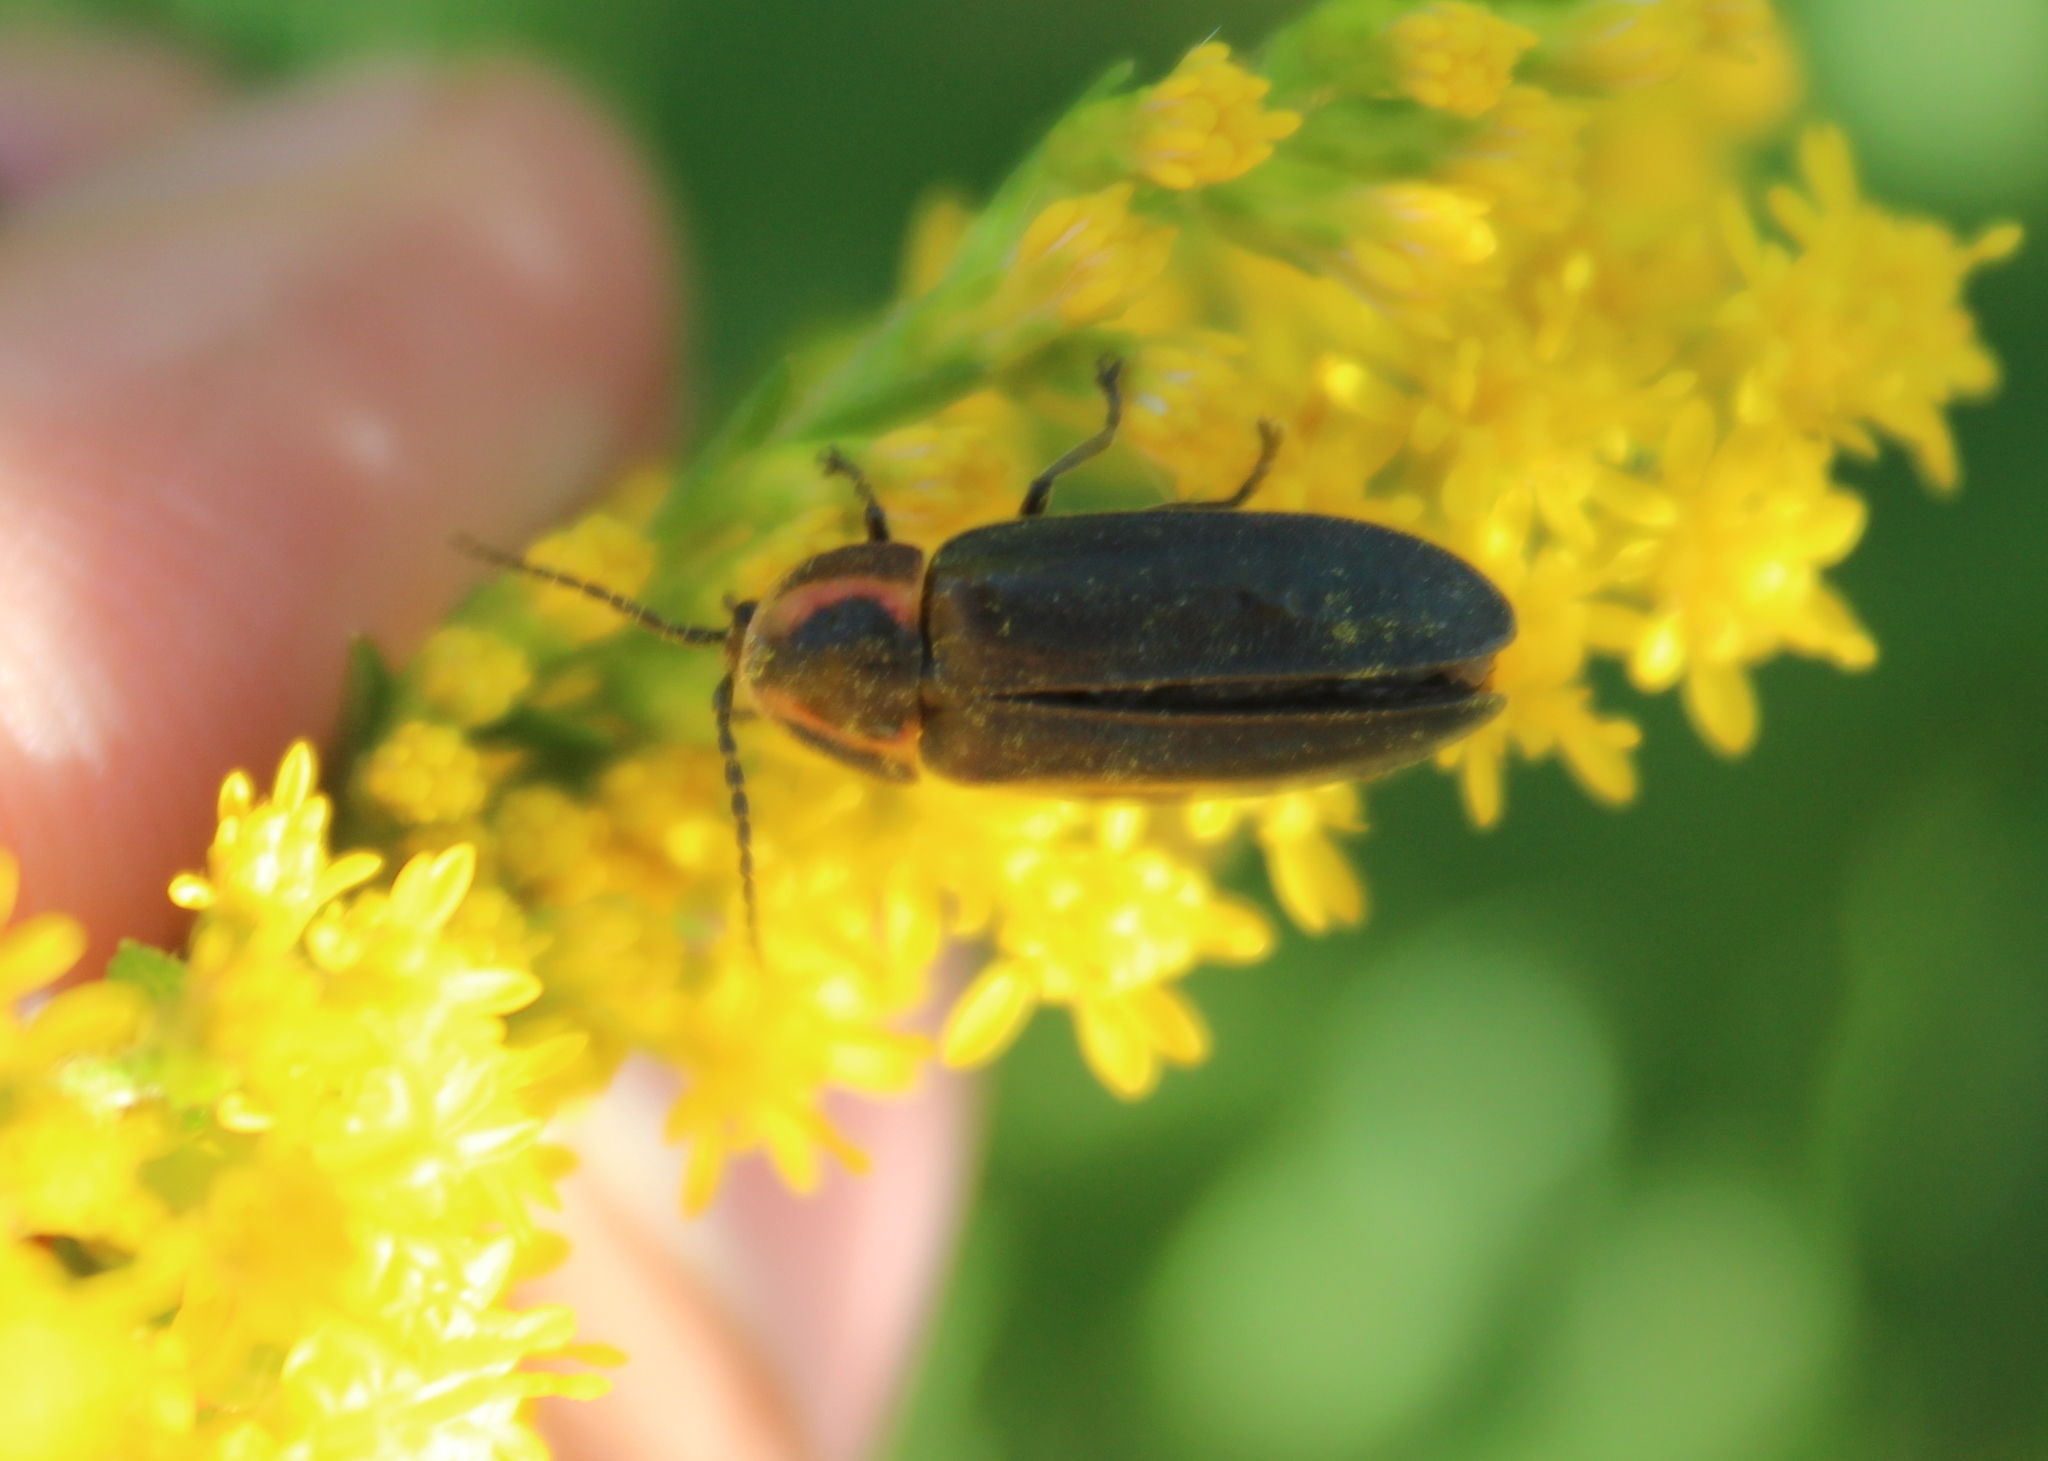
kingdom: Animalia
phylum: Arthropoda
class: Insecta
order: Coleoptera
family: Lampyridae
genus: Photinus
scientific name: Photinus corrusca
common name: Winter firefly
